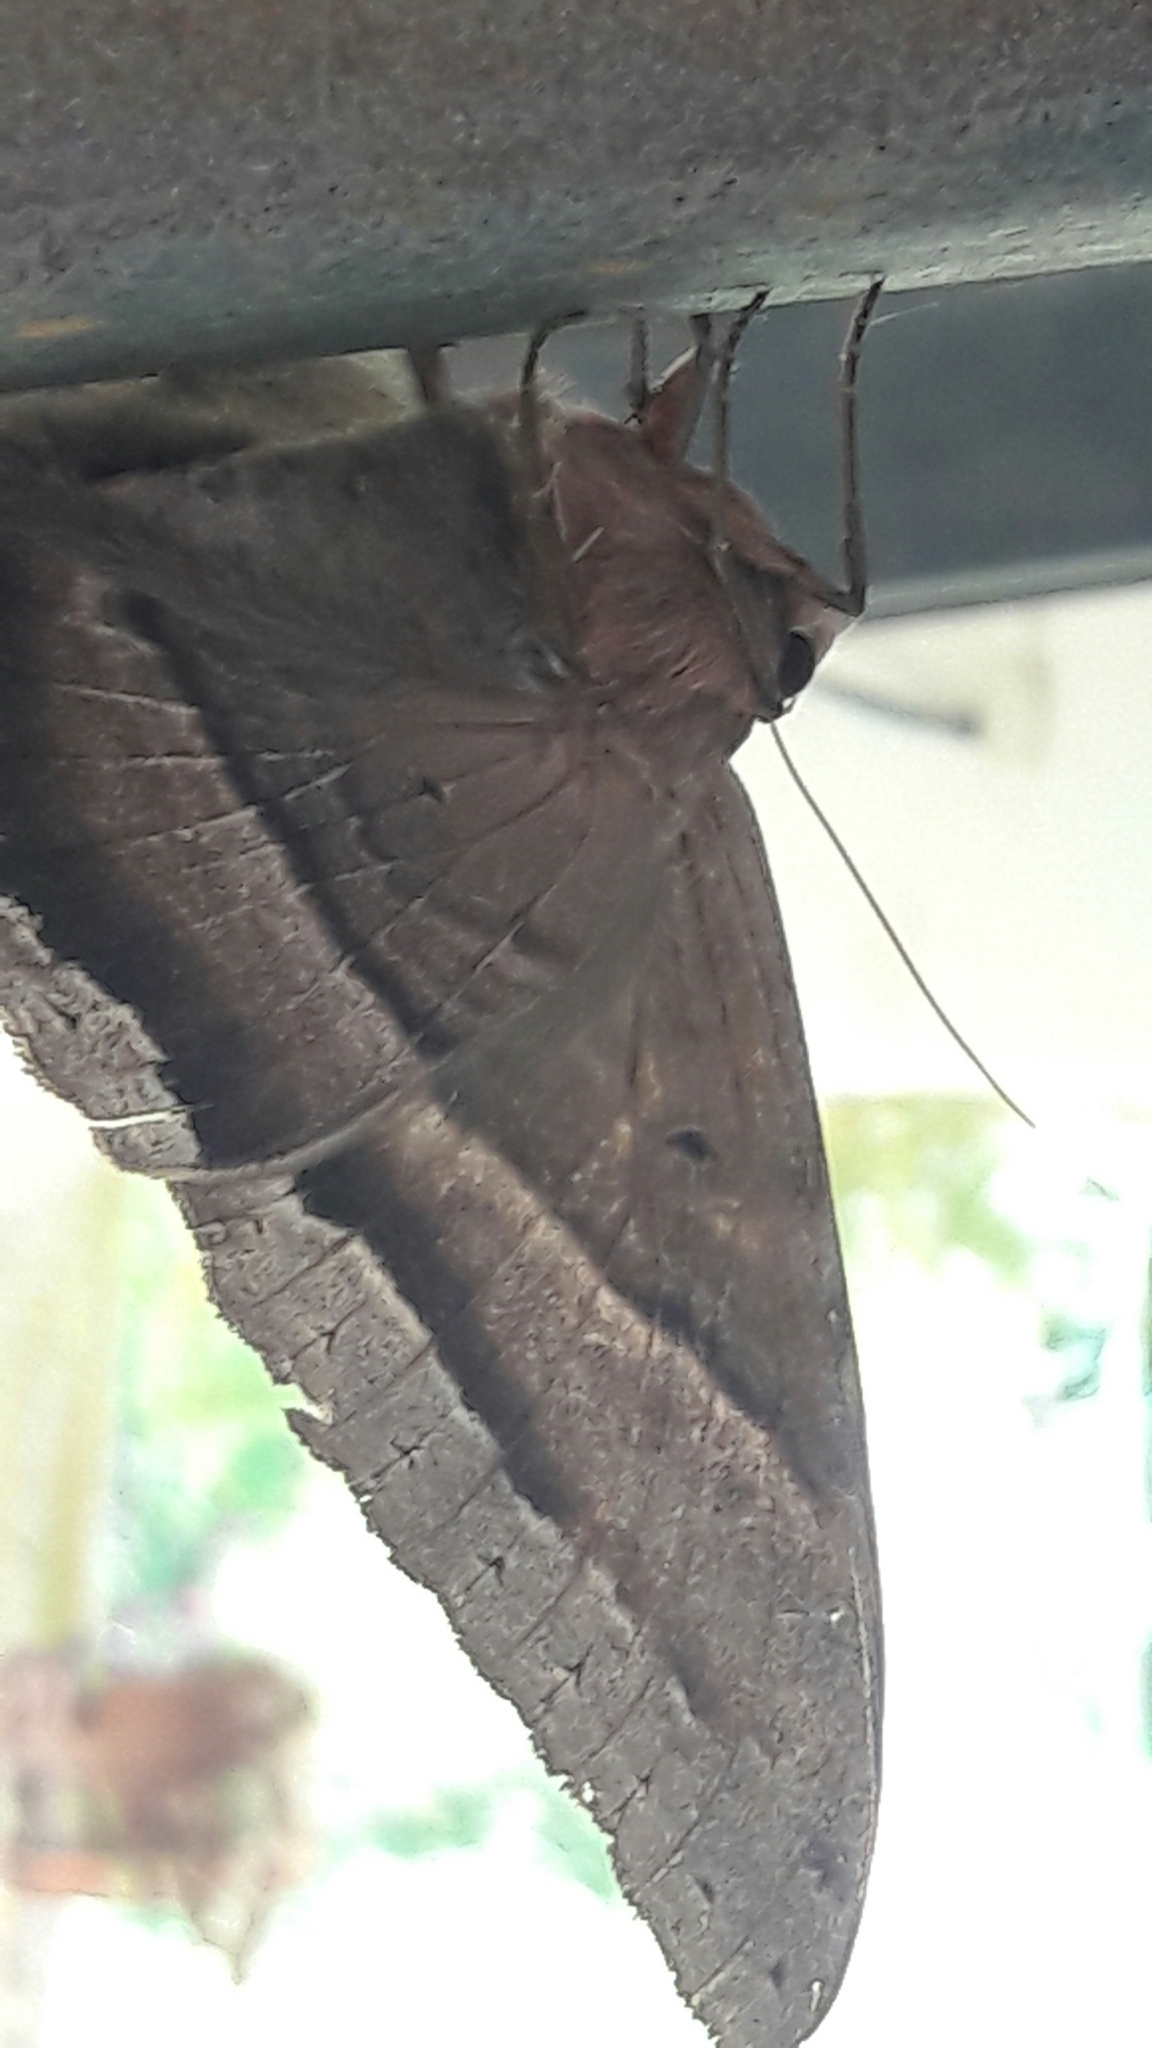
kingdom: Animalia
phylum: Arthropoda
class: Insecta
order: Lepidoptera
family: Erebidae
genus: Ascalapha
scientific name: Ascalapha odorata
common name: Black witch
